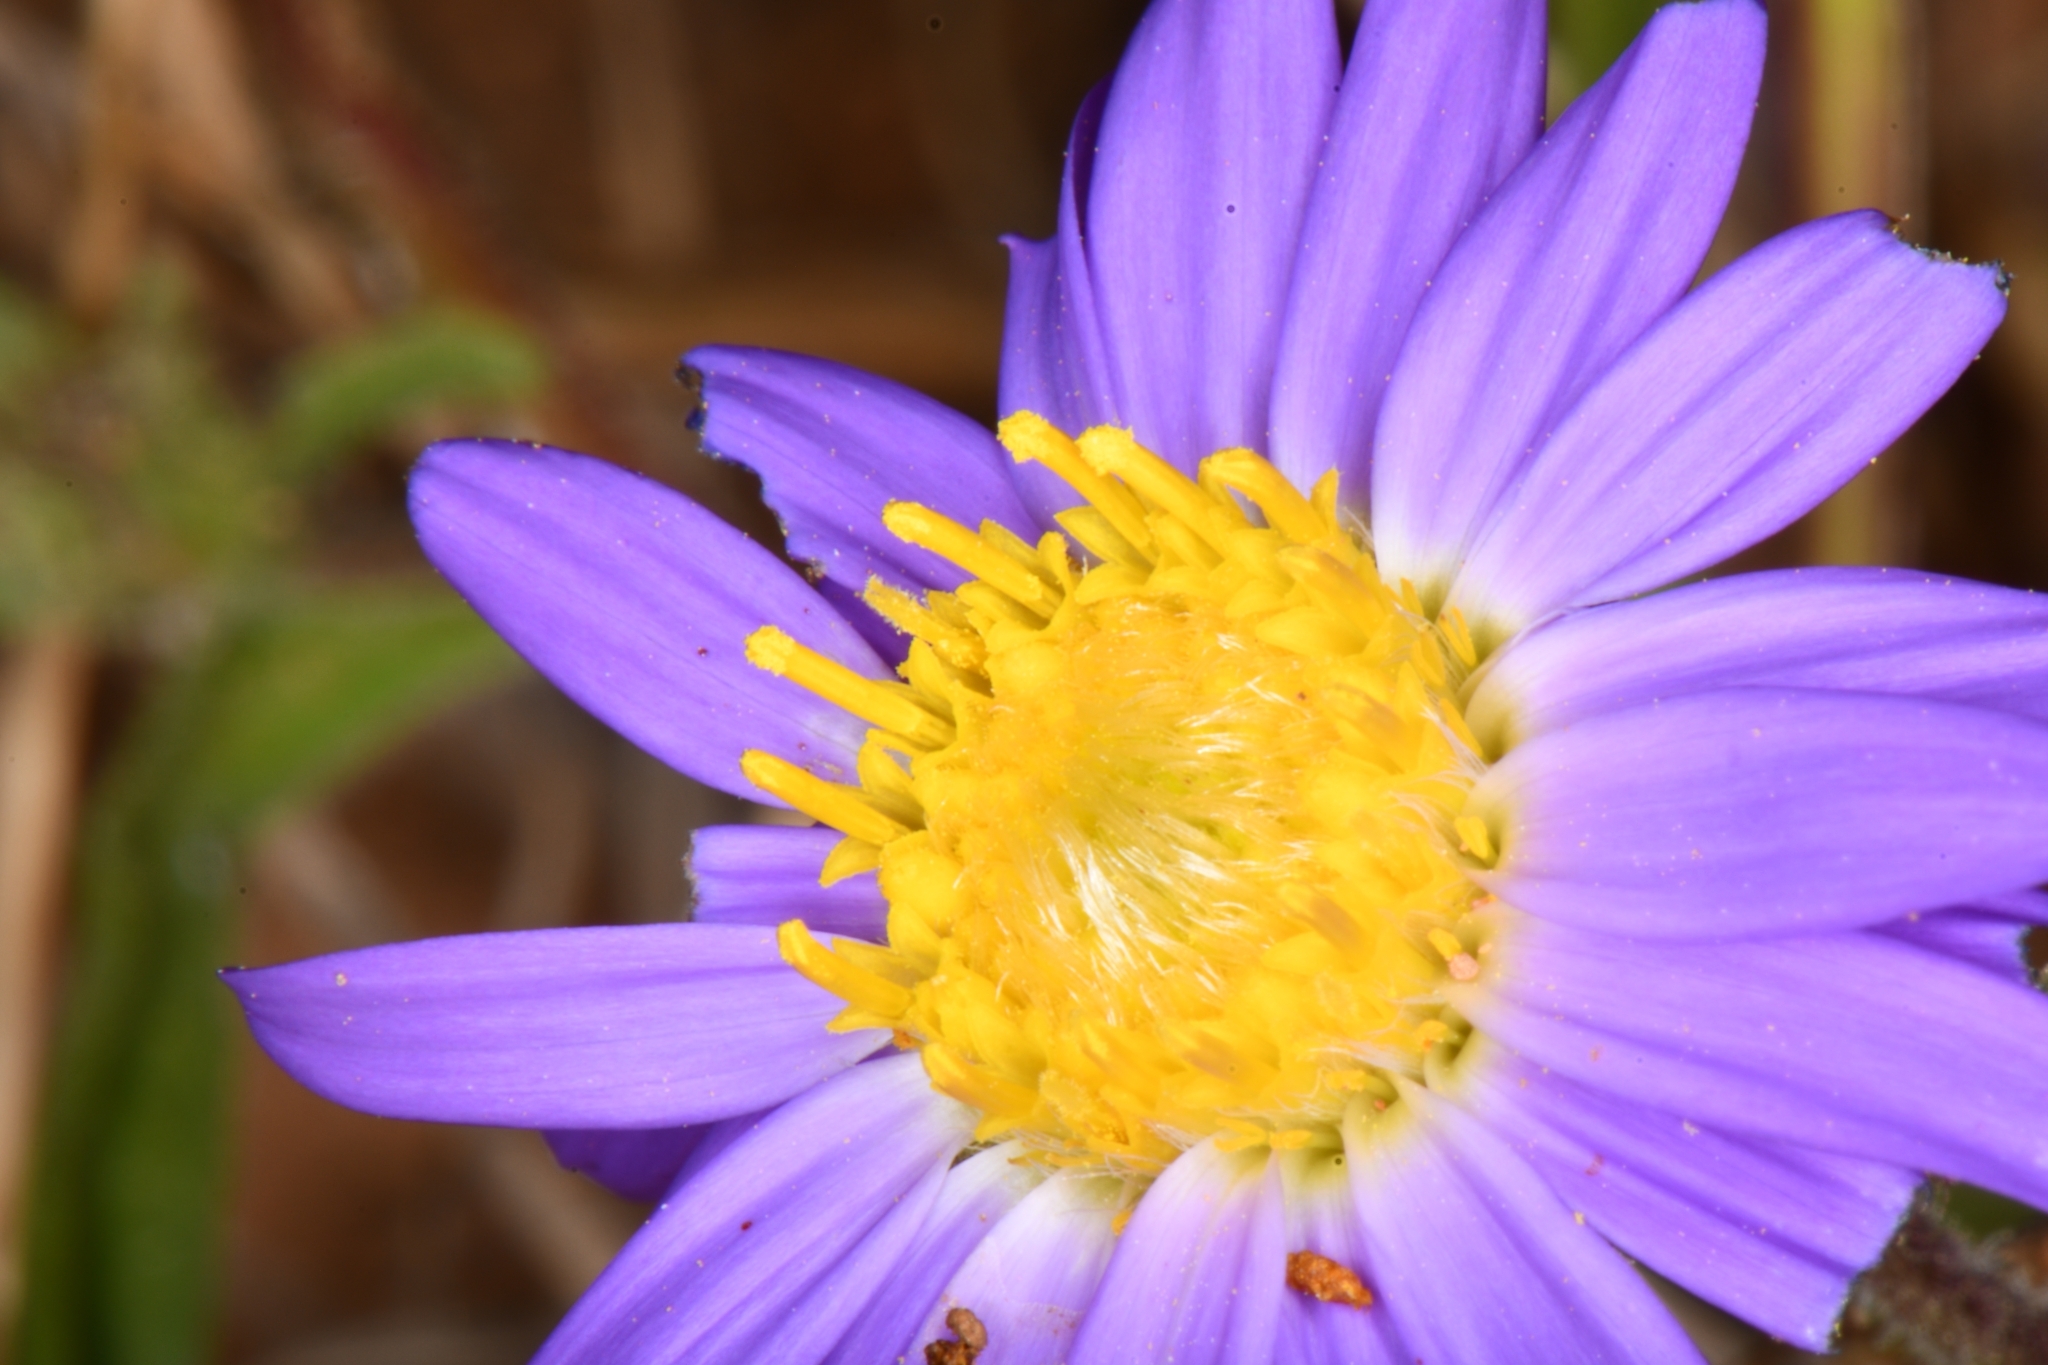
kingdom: Plantae
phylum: Tracheophyta
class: Magnoliopsida
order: Asterales
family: Asteraceae
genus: Symphyotrichum
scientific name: Symphyotrichum spathulatum
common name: Western mountain aster
